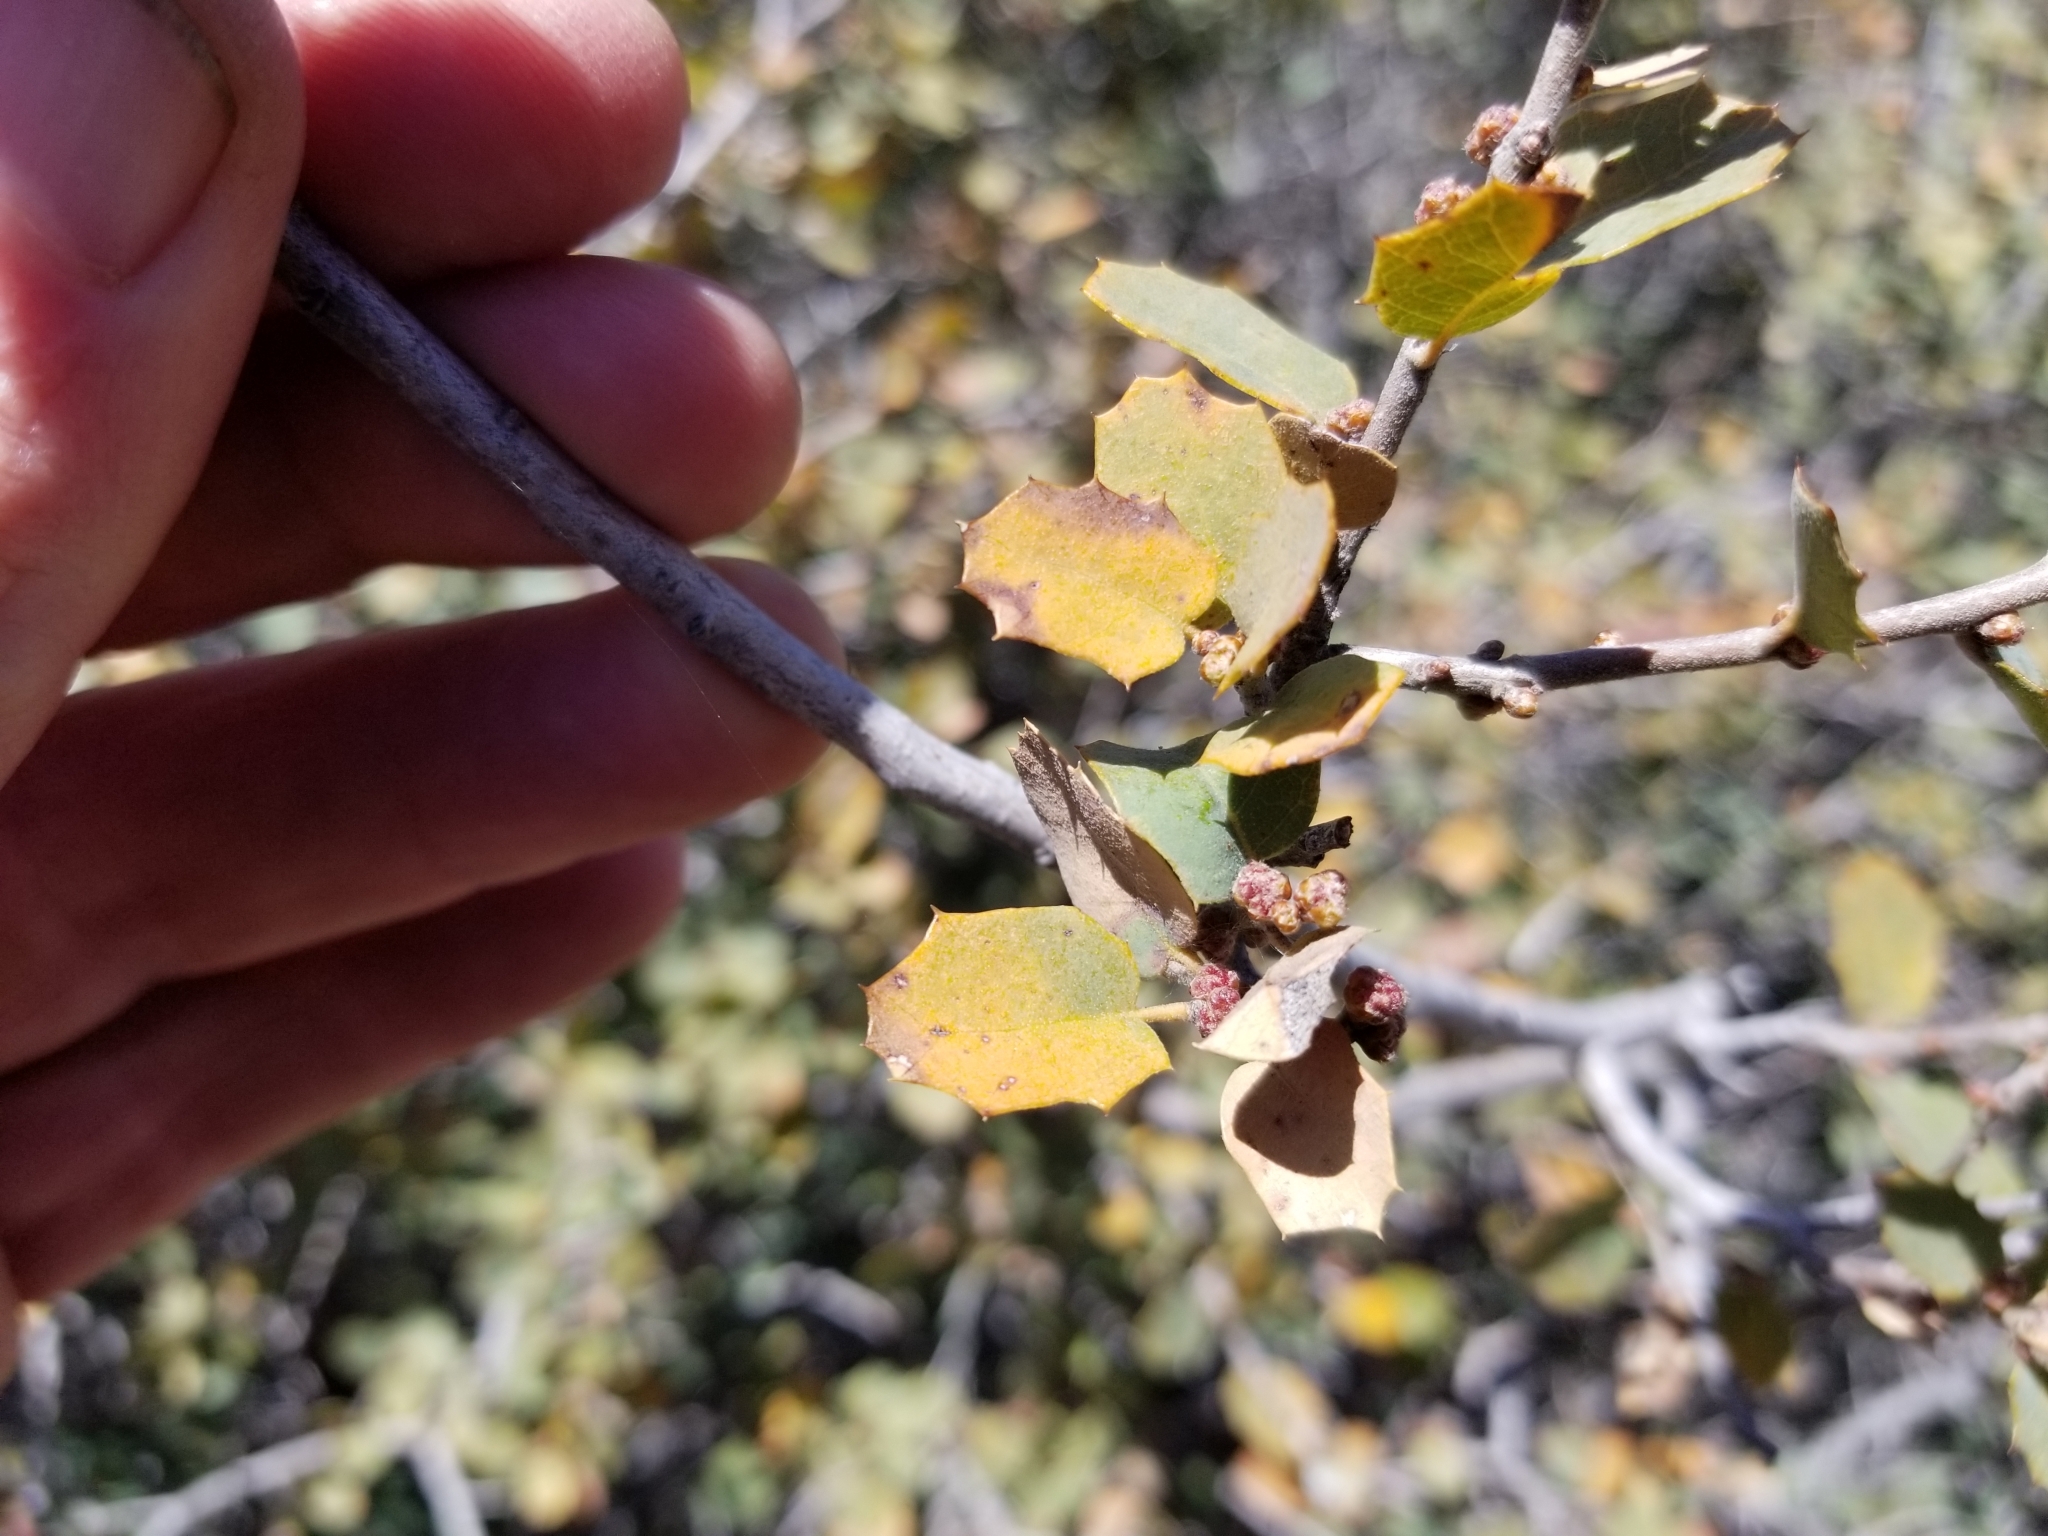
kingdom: Plantae
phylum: Tracheophyta
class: Magnoliopsida
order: Fagales
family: Fagaceae
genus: Quercus
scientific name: Quercus turbinella
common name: Sonoran scrub oak
